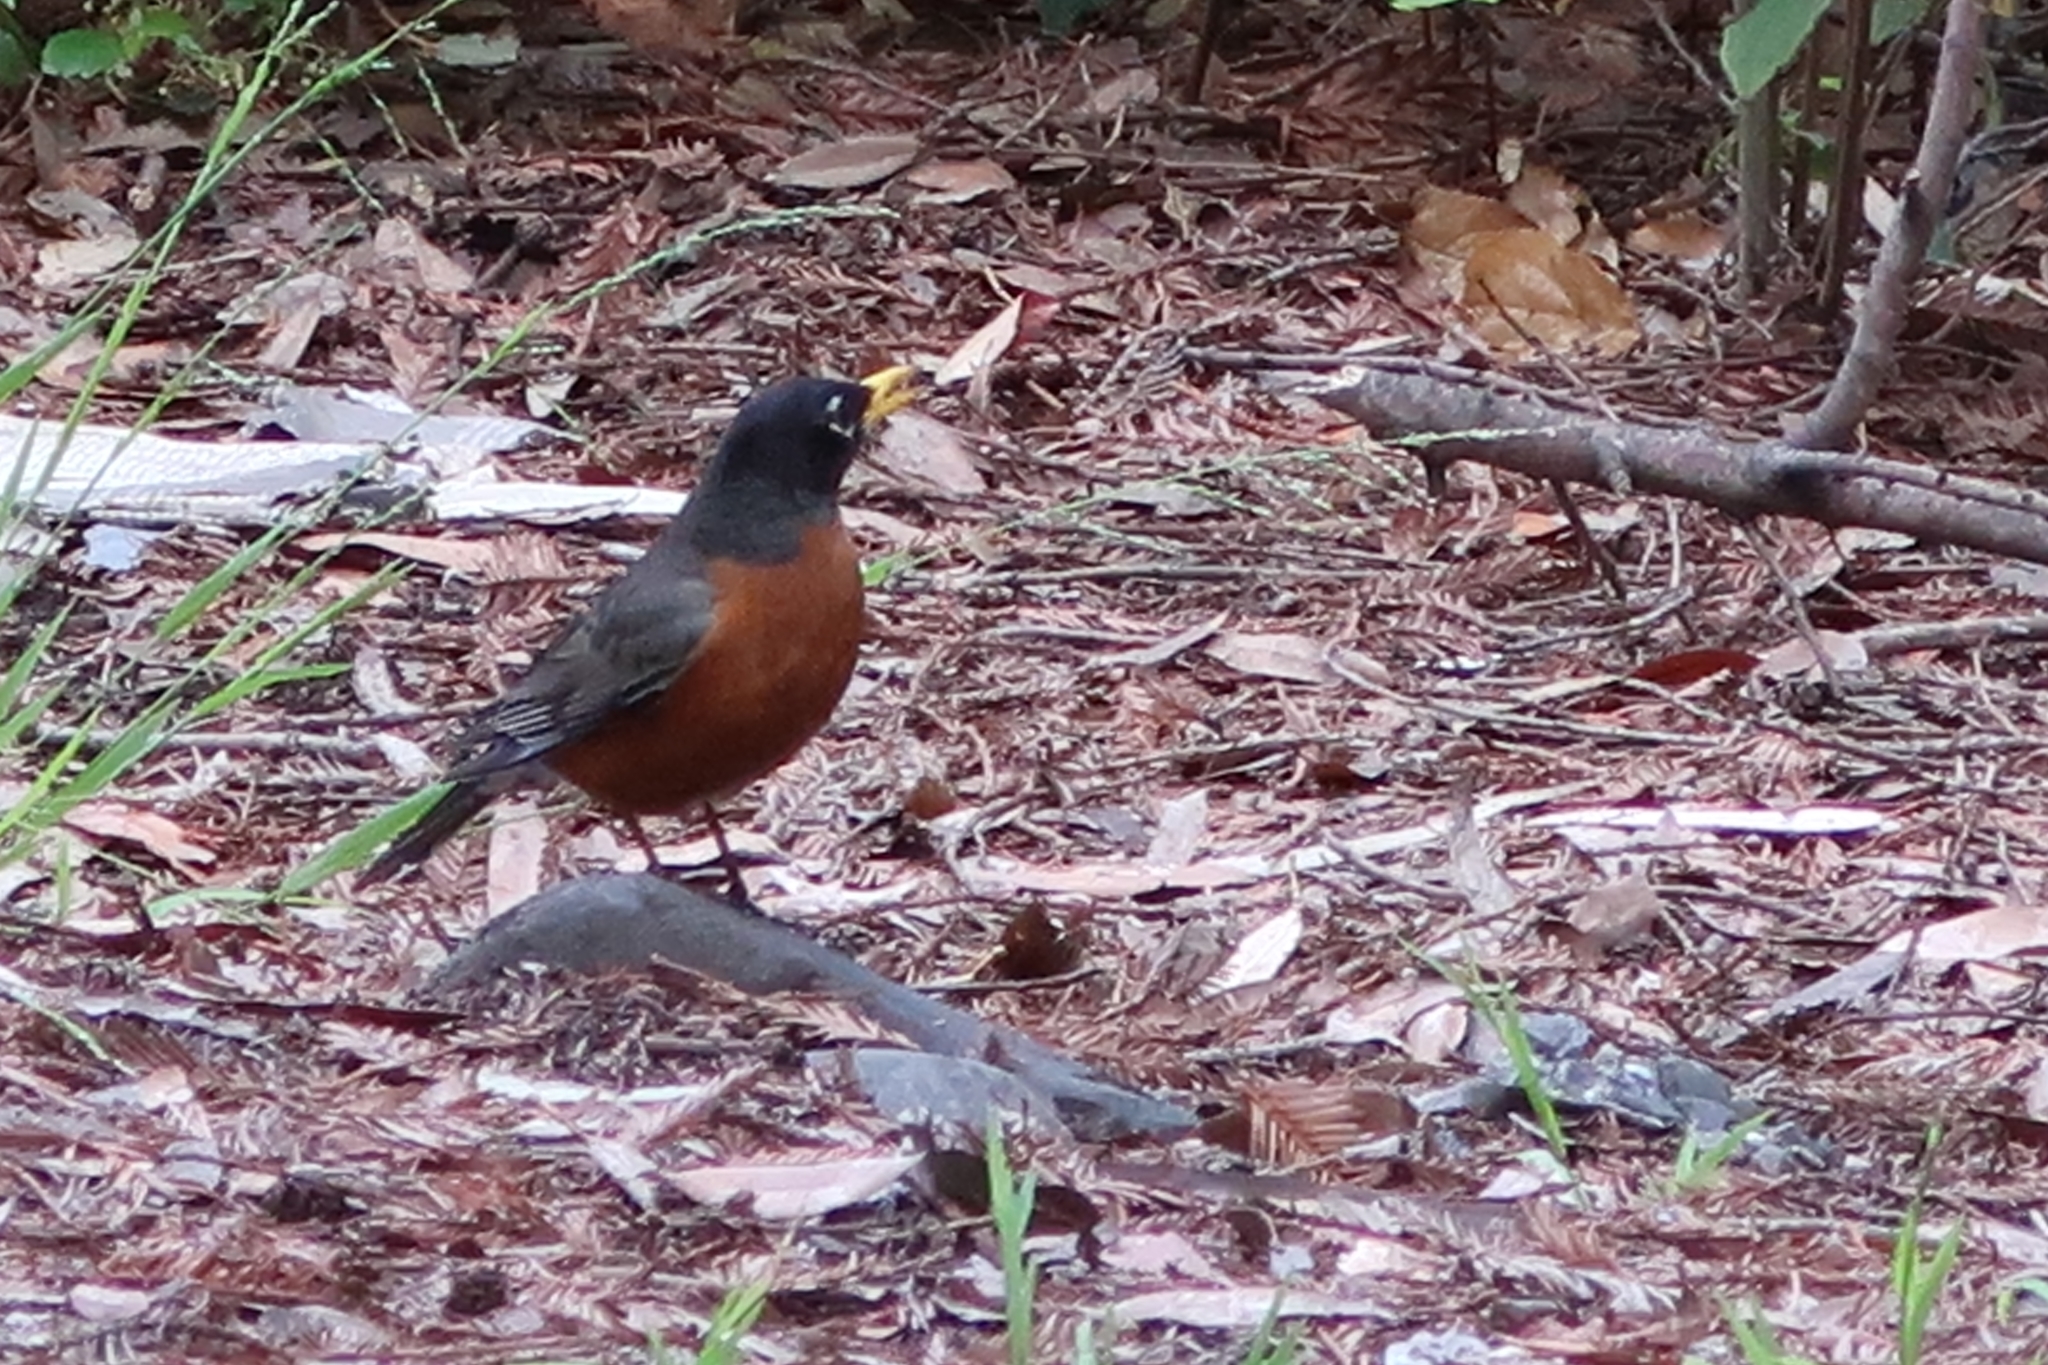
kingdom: Animalia
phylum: Chordata
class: Aves
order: Passeriformes
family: Turdidae
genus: Turdus
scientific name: Turdus migratorius
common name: American robin
